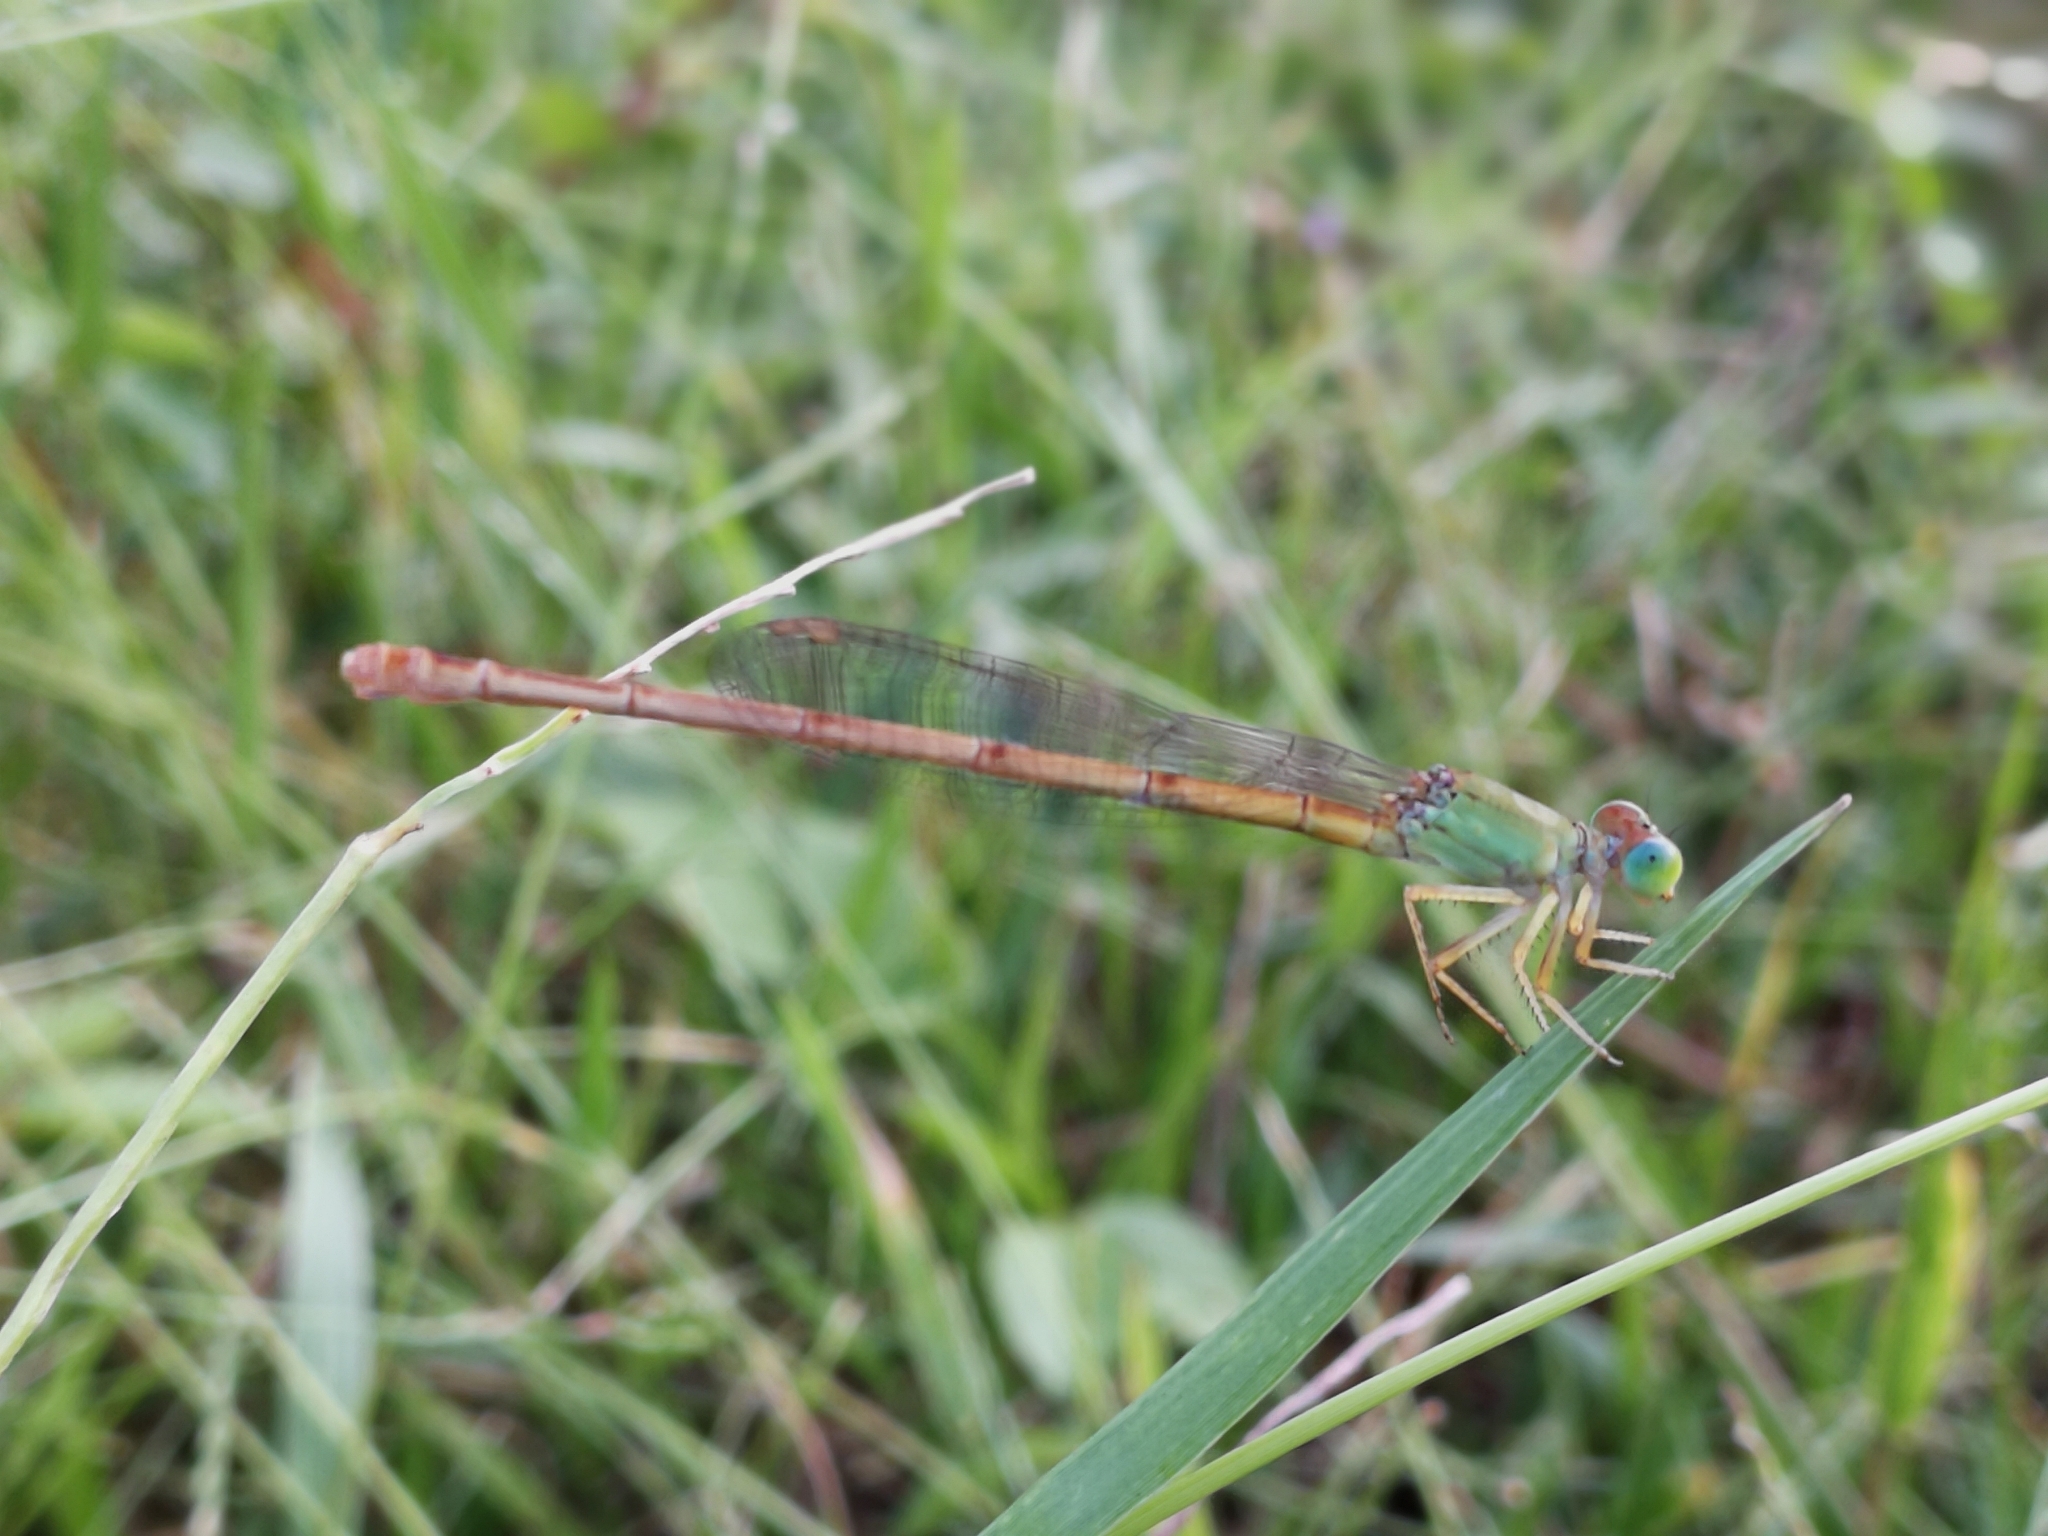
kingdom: Animalia
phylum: Arthropoda
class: Insecta
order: Odonata
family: Coenagrionidae
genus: Ceriagrion
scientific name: Ceriagrion coromandelianum
